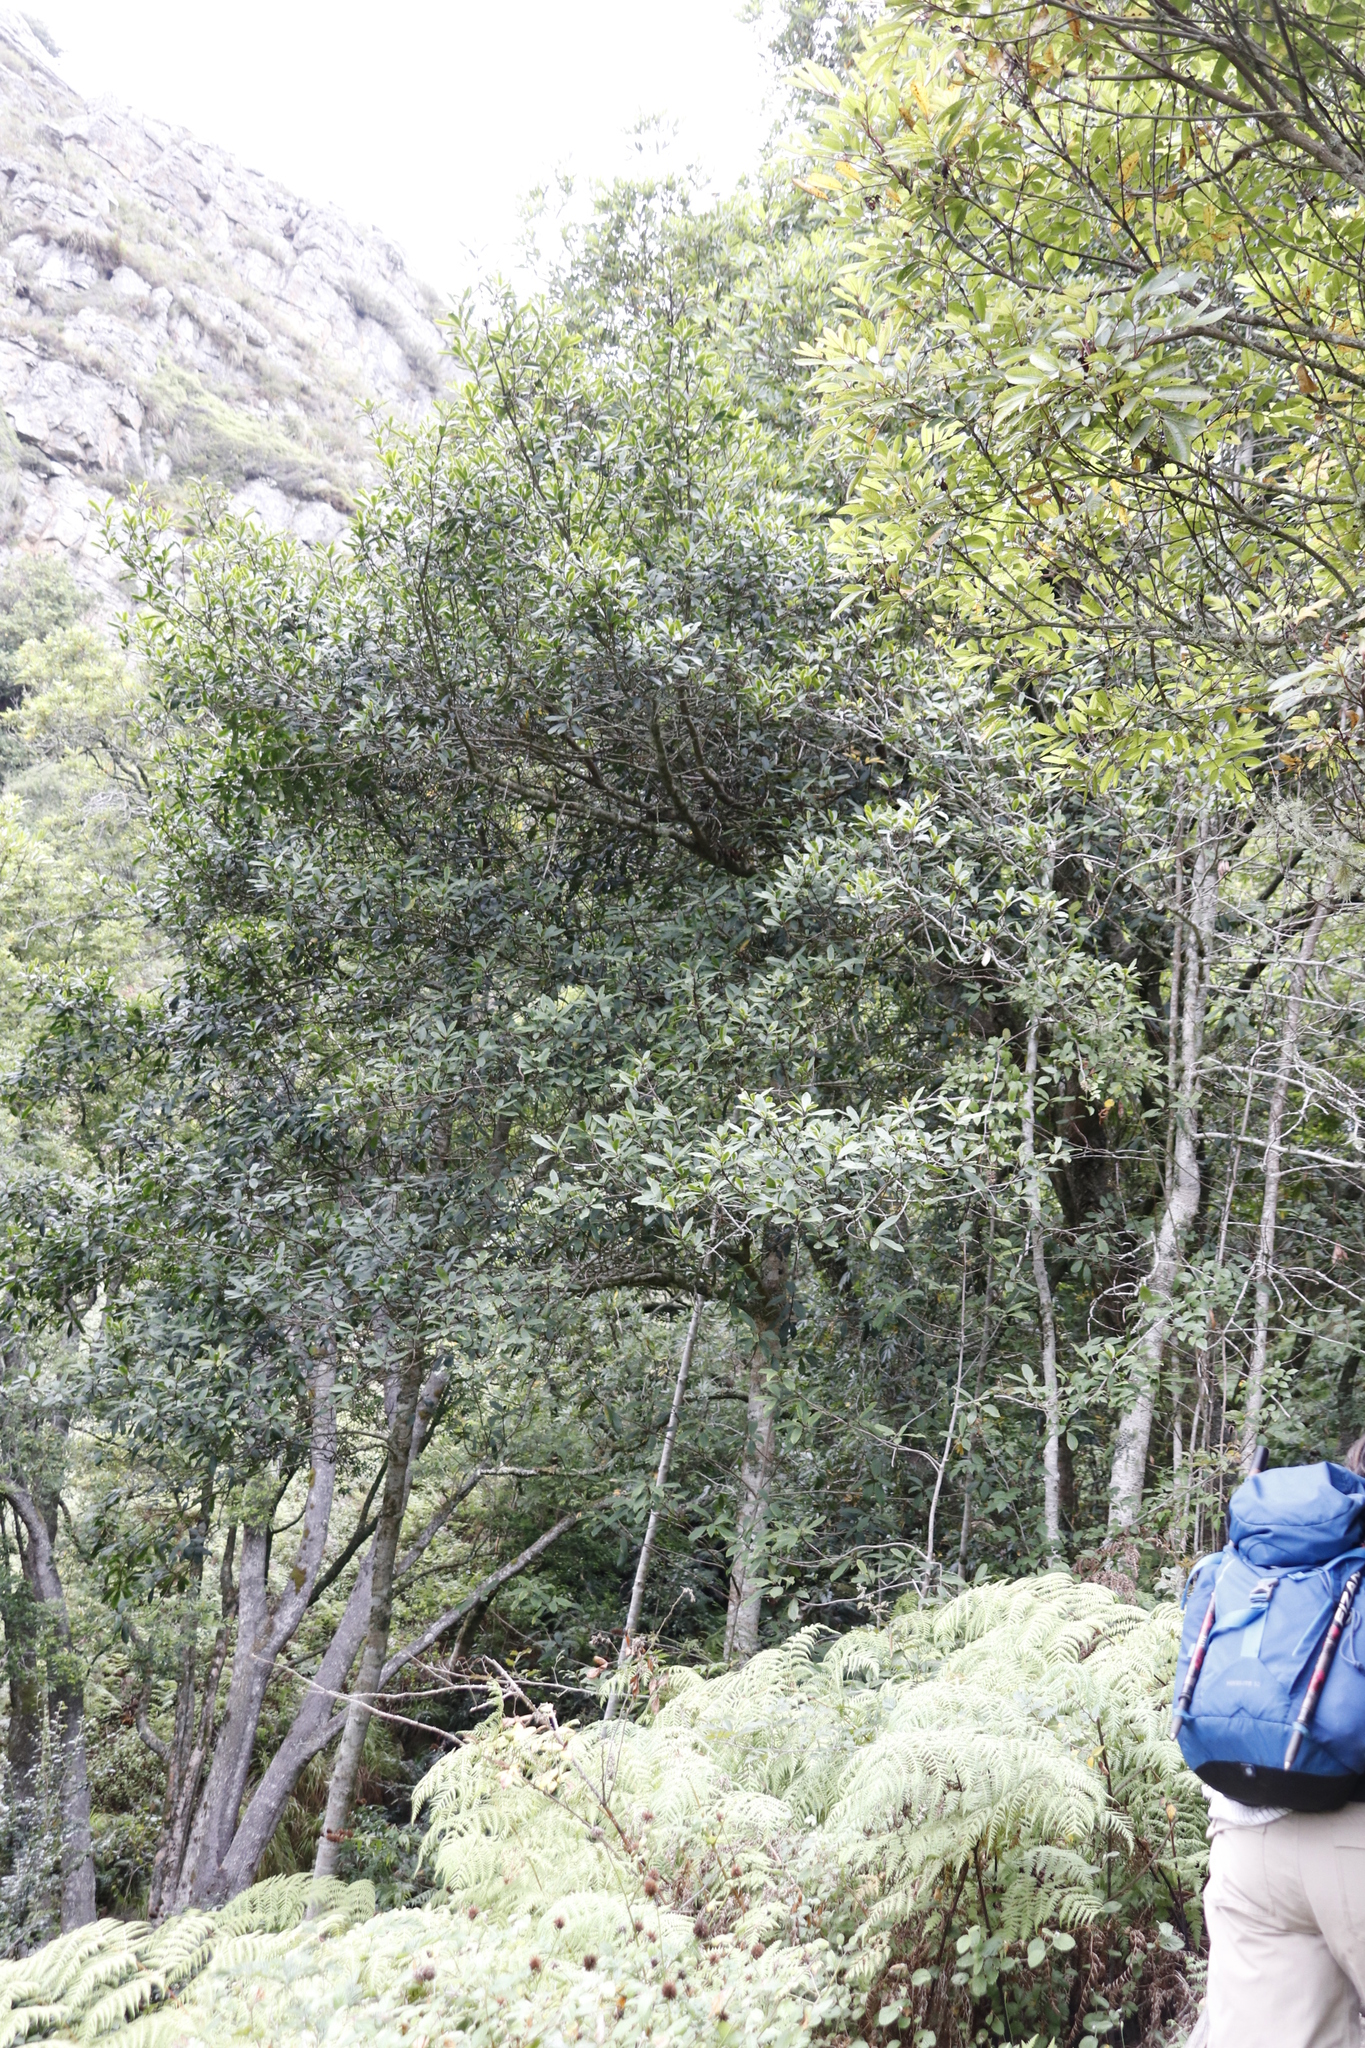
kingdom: Plantae
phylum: Tracheophyta
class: Magnoliopsida
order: Ericales
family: Primulaceae
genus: Myrsine
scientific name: Myrsine melanophloeos
